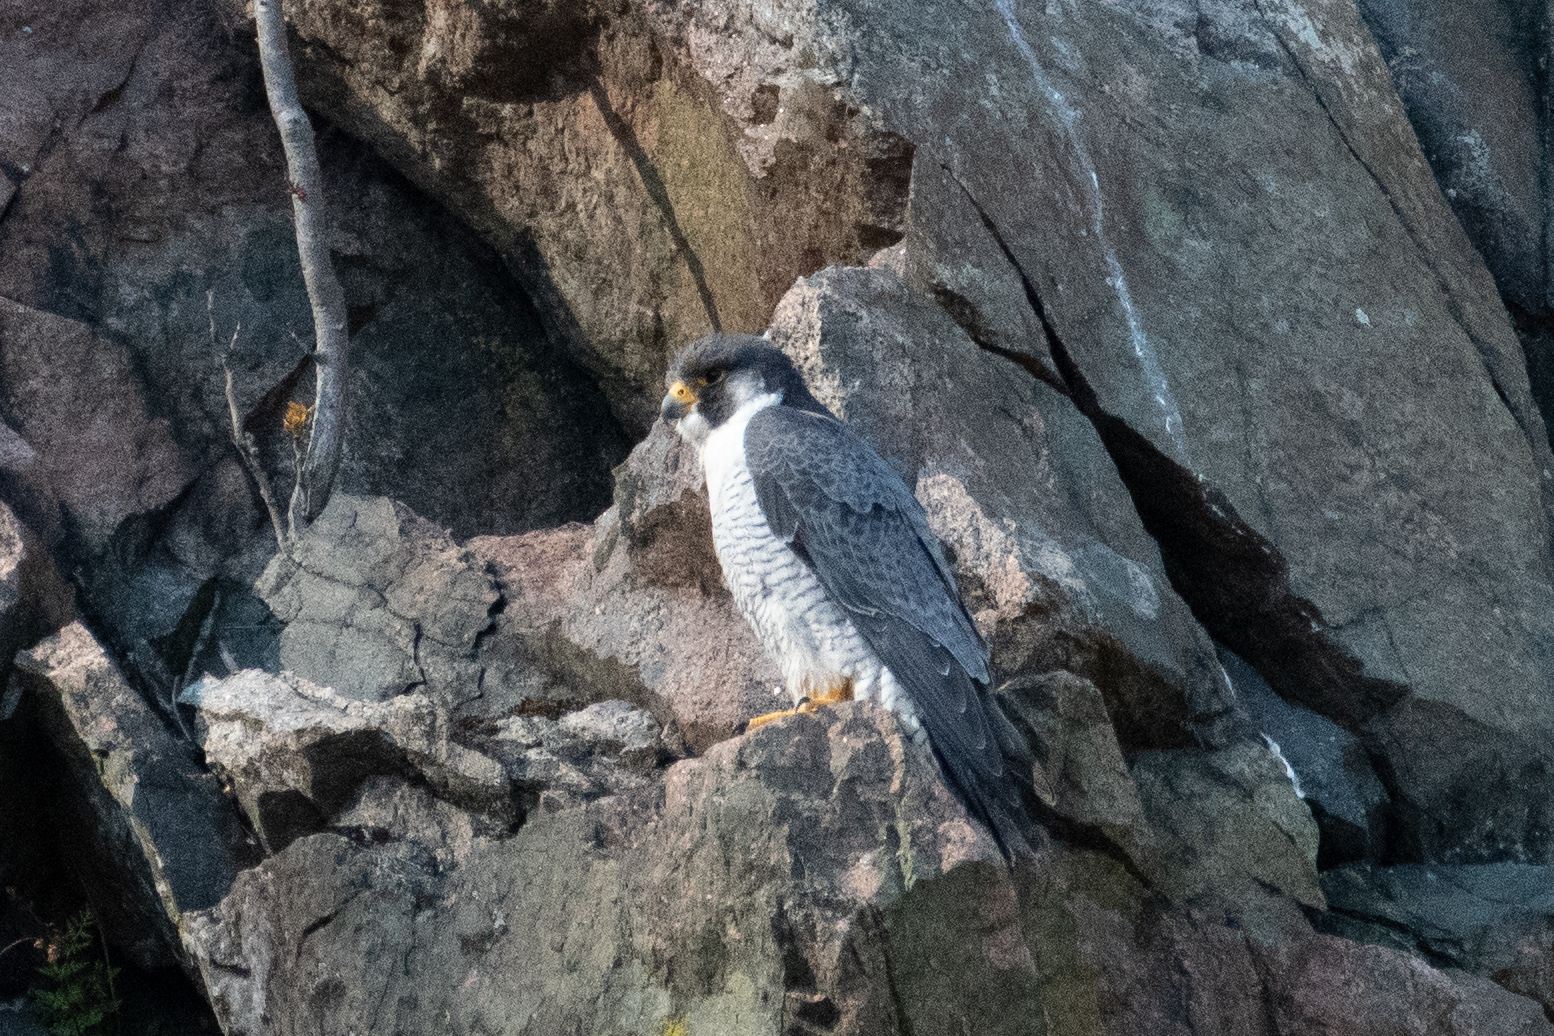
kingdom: Animalia
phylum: Chordata
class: Aves
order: Falconiformes
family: Falconidae
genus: Falco
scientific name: Falco peregrinus
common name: Peregrine falcon
